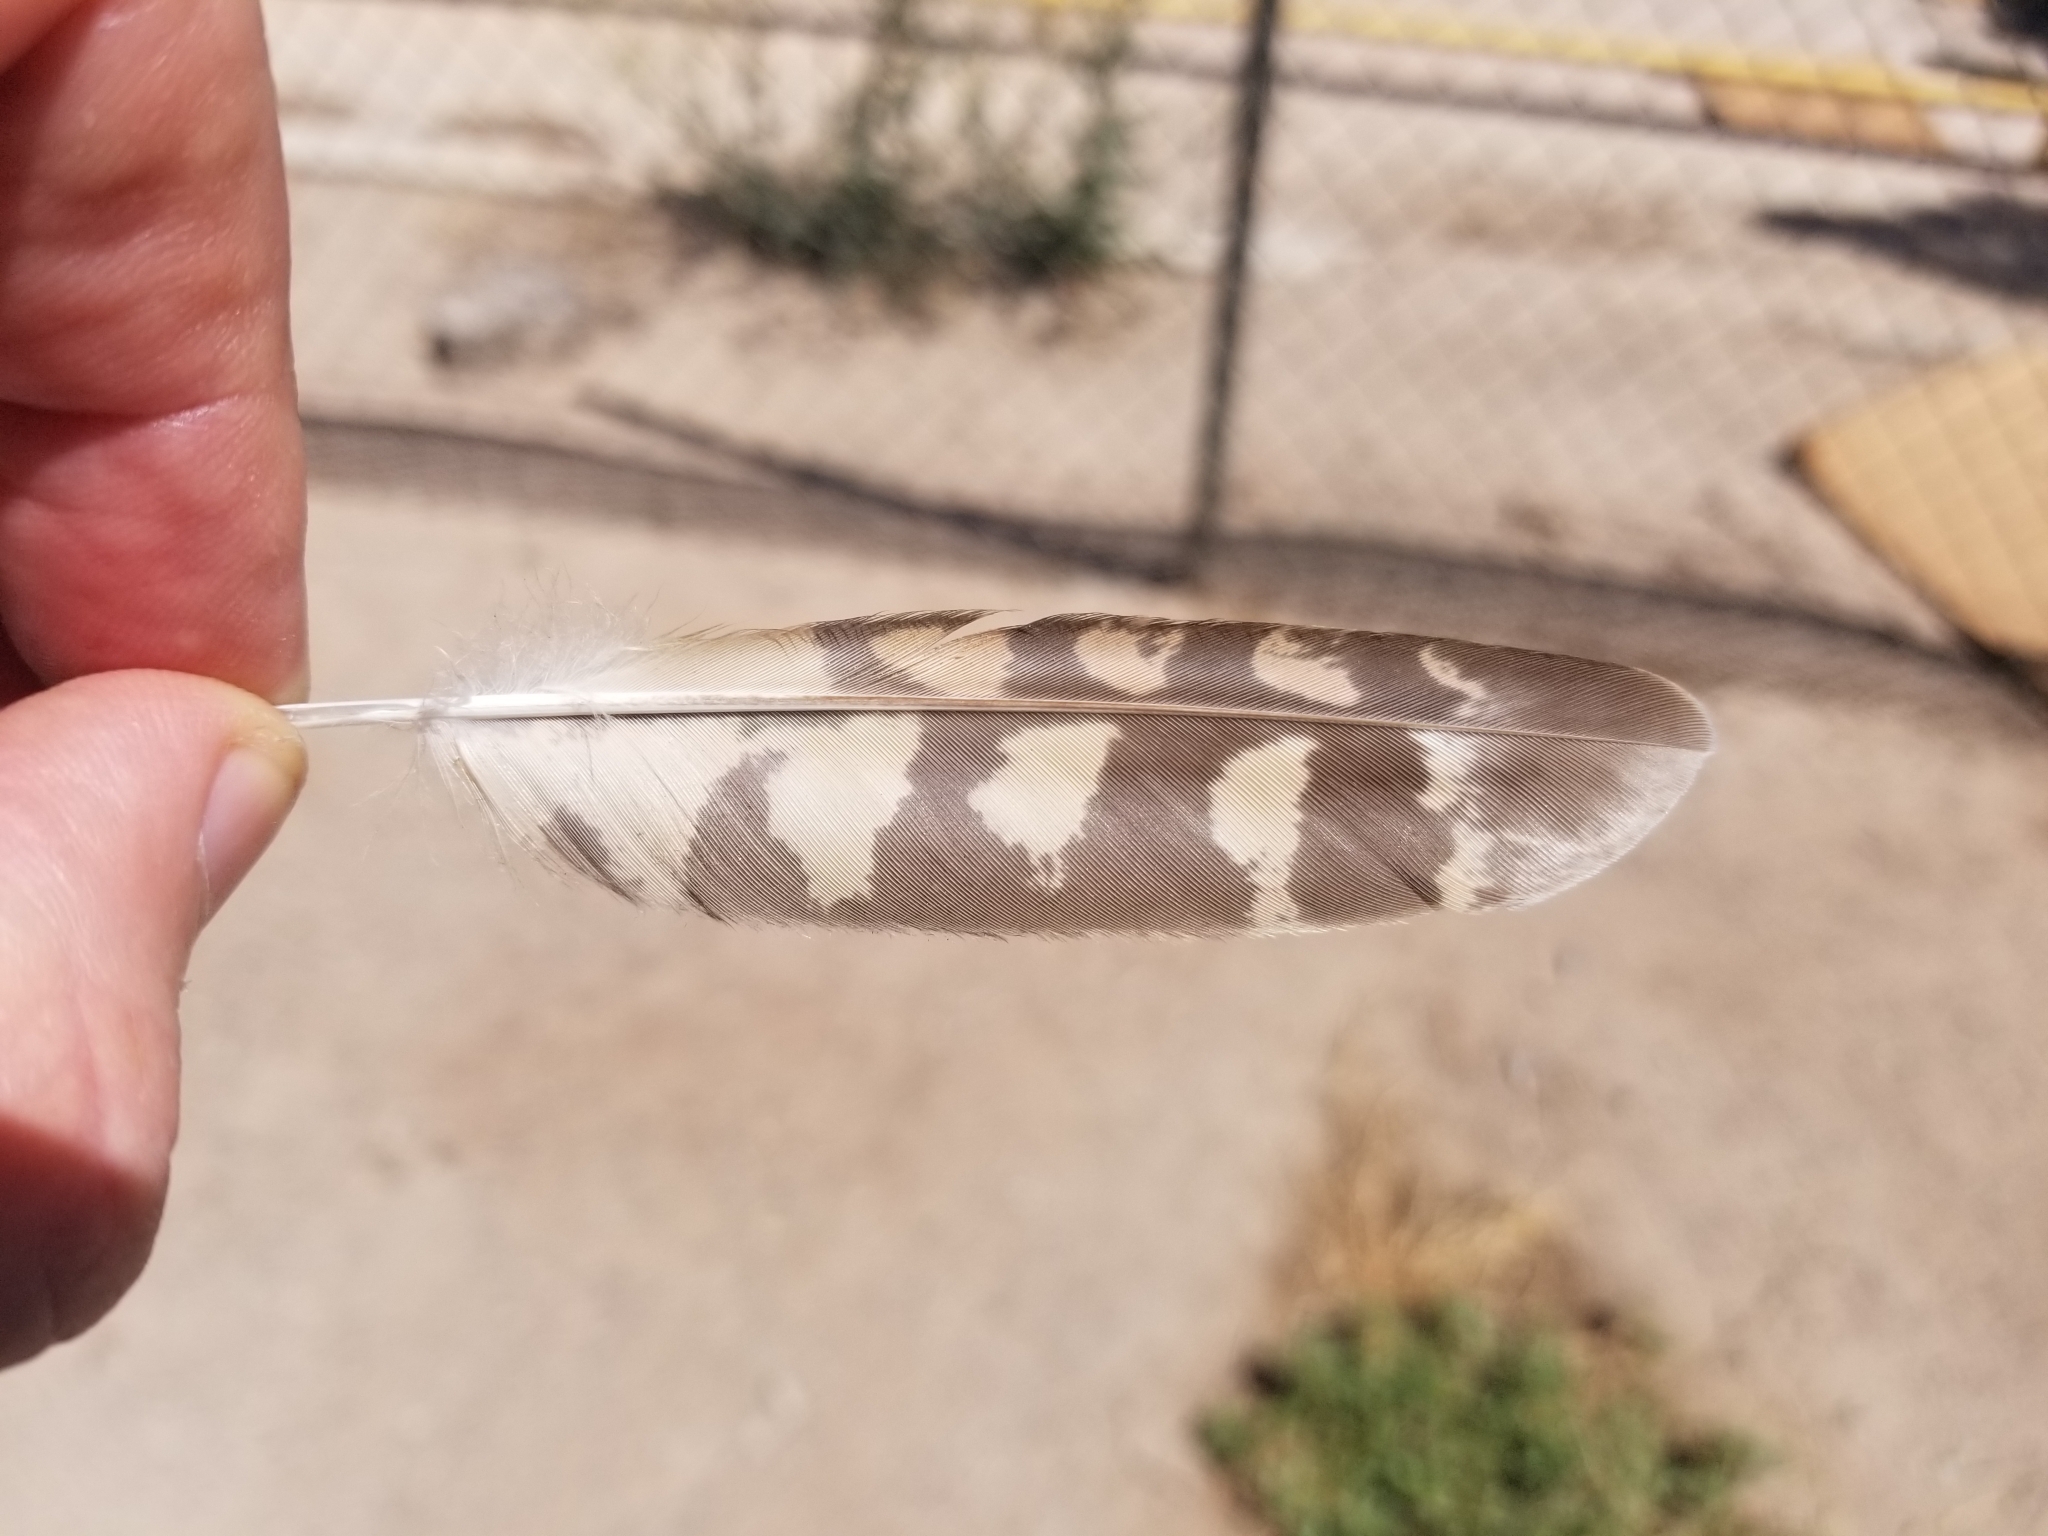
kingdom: Animalia
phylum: Chordata
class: Aves
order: Caprimulgiformes
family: Caprimulgidae
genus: Chordeiles
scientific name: Chordeiles acutipennis
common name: Lesser nighthawk
